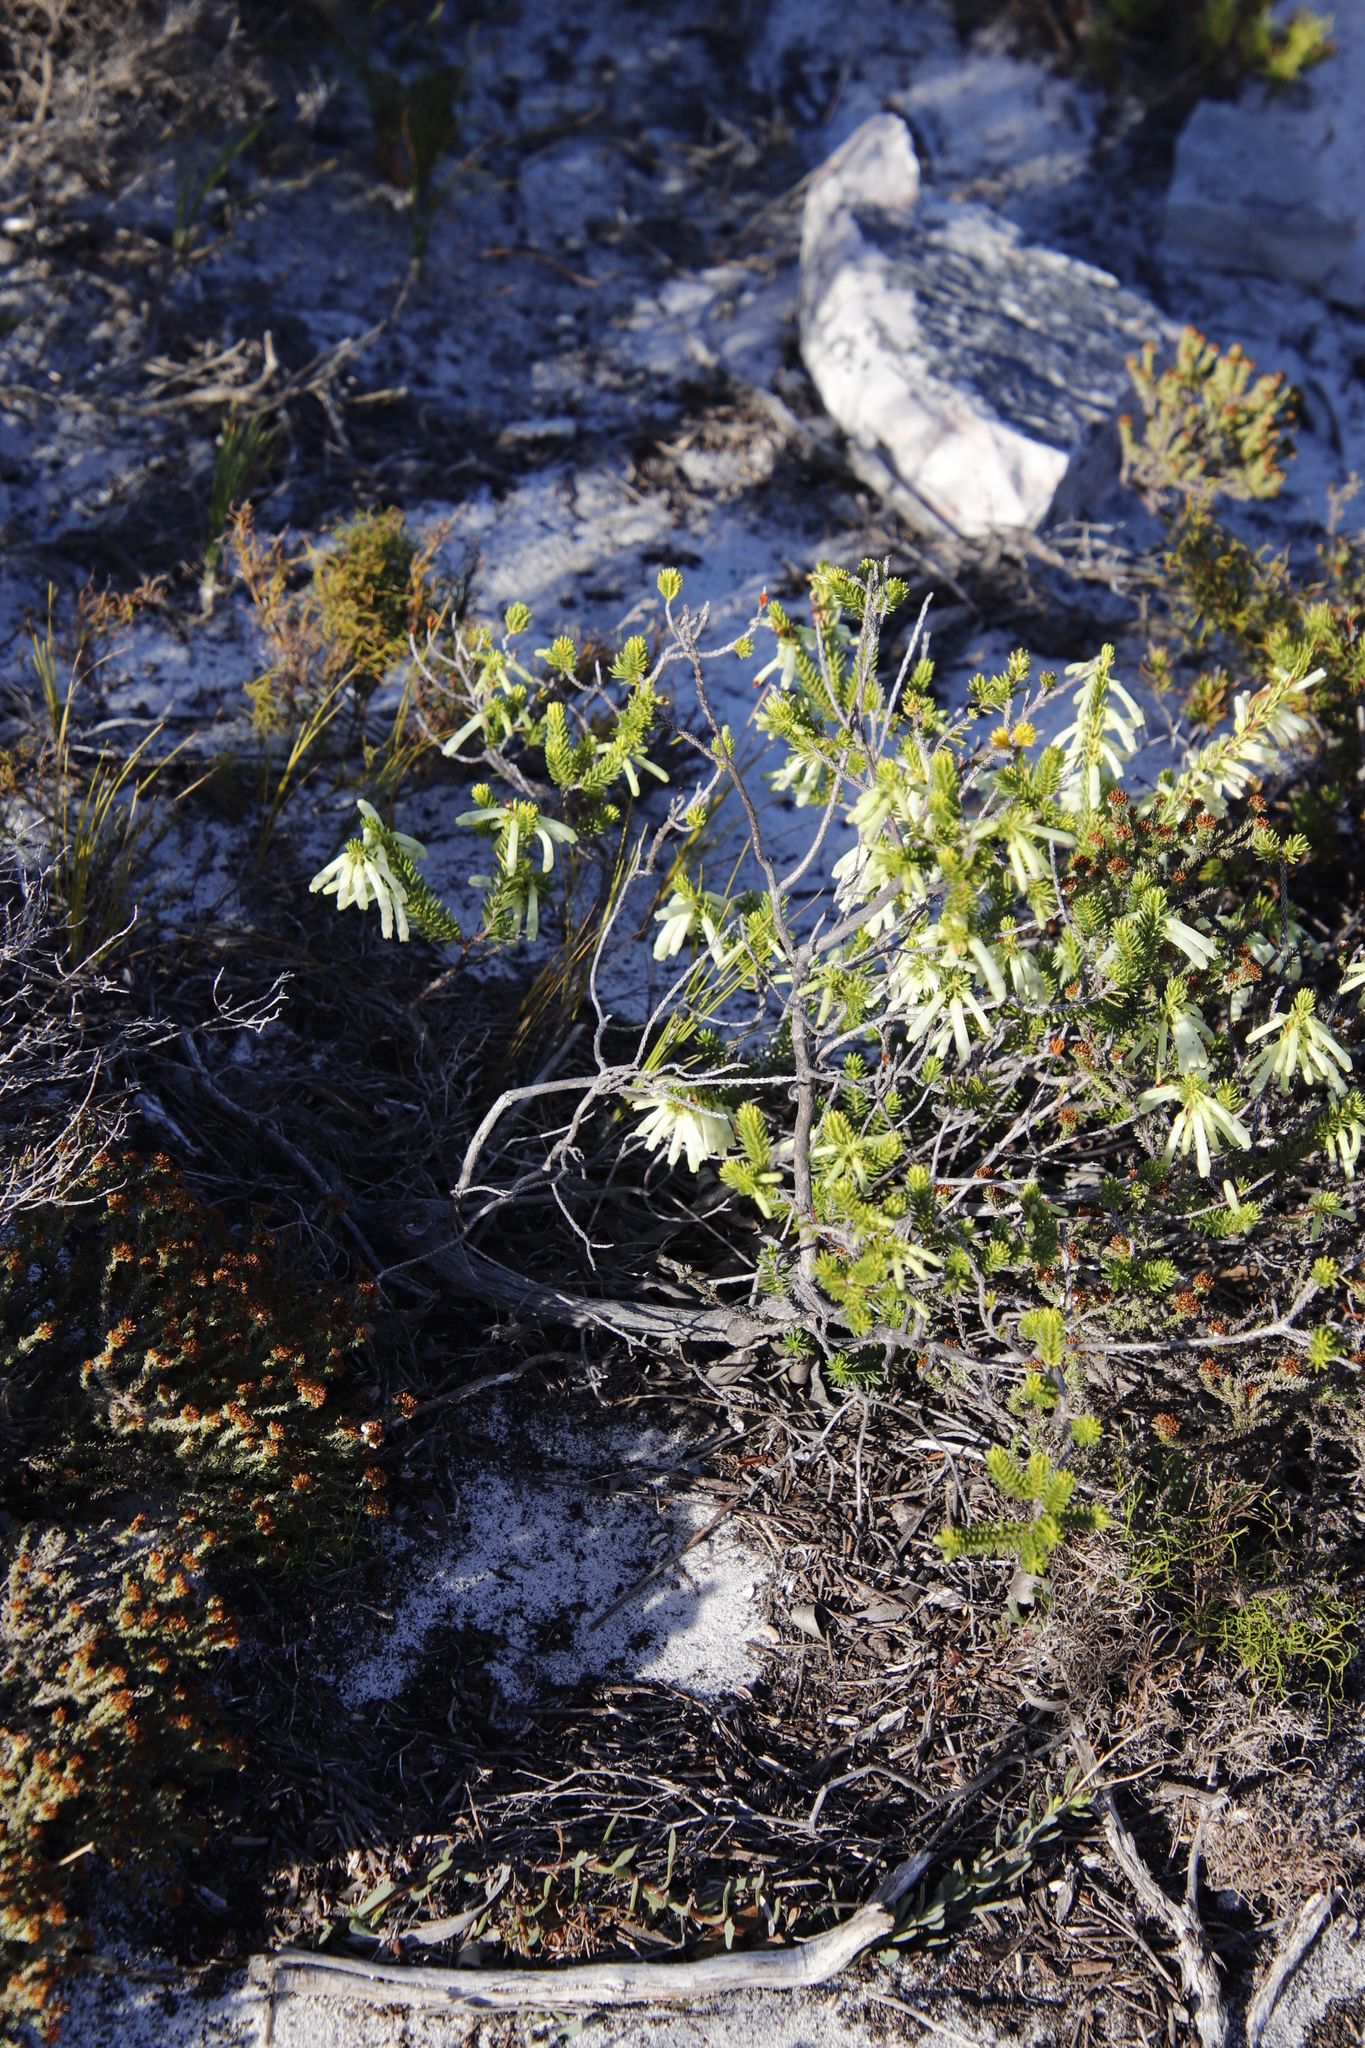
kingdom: Plantae
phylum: Tracheophyta
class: Magnoliopsida
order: Ericales
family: Ericaceae
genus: Erica
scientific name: Erica mammosa
